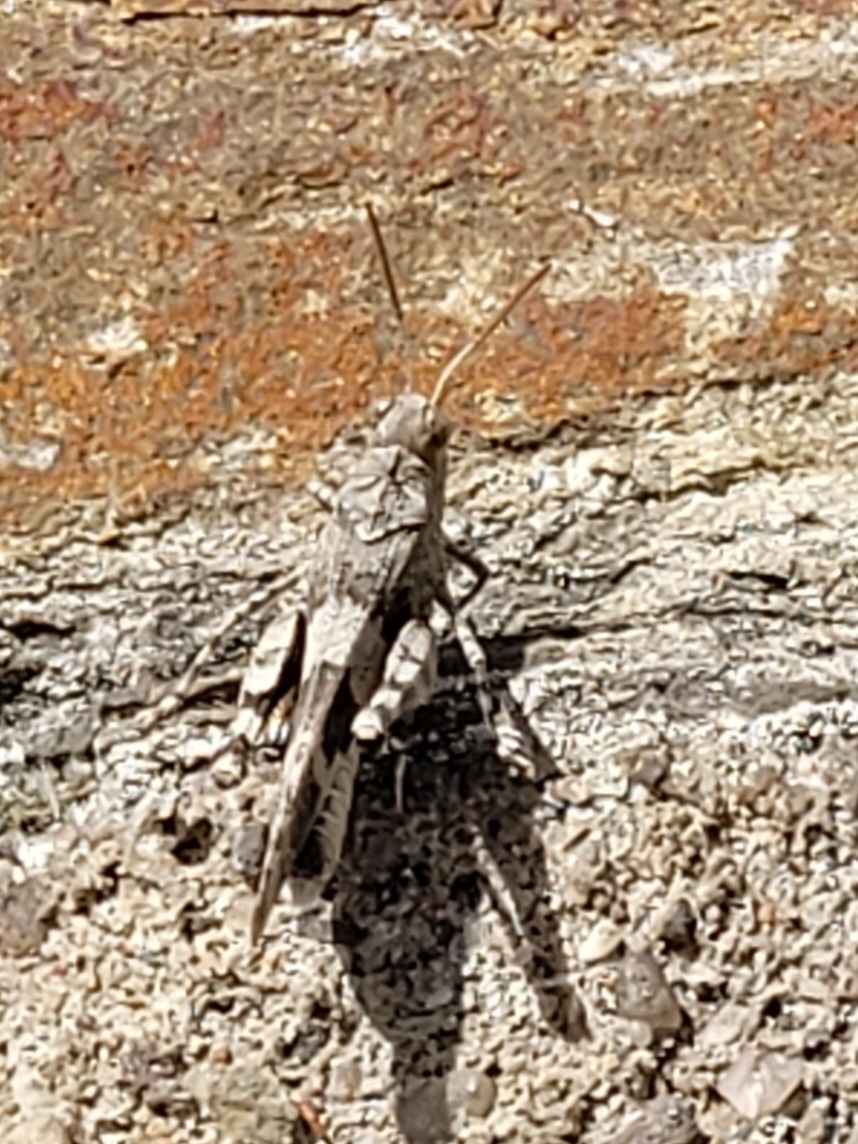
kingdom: Animalia
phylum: Arthropoda
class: Insecta
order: Orthoptera
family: Acrididae
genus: Oedipoda
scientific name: Oedipoda caerulescens
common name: Blue-winged grasshopper
